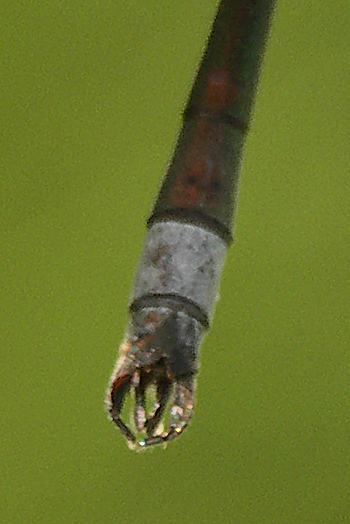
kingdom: Animalia
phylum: Arthropoda
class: Insecta
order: Odonata
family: Lestidae
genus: Lestes
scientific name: Lestes sponsa
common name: Common spreadwing
